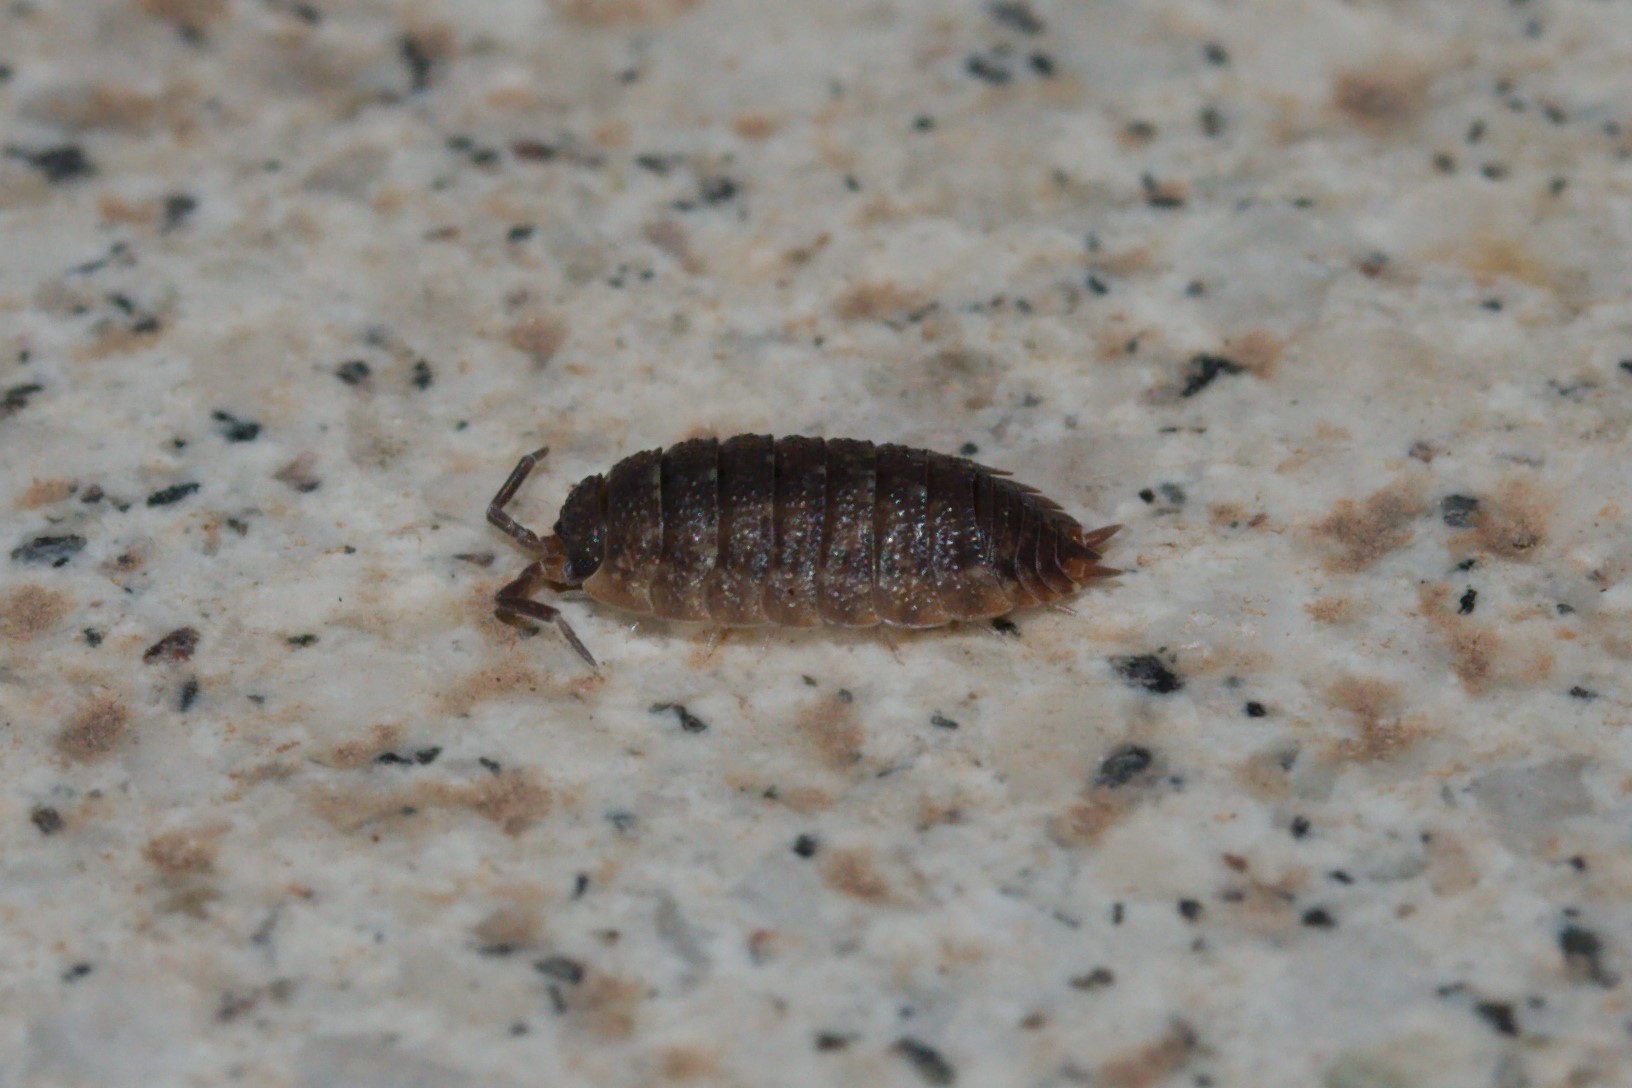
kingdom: Animalia
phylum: Arthropoda
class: Malacostraca
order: Isopoda
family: Porcellionidae
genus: Porcellio
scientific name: Porcellio scaber
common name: Common rough woodlouse
